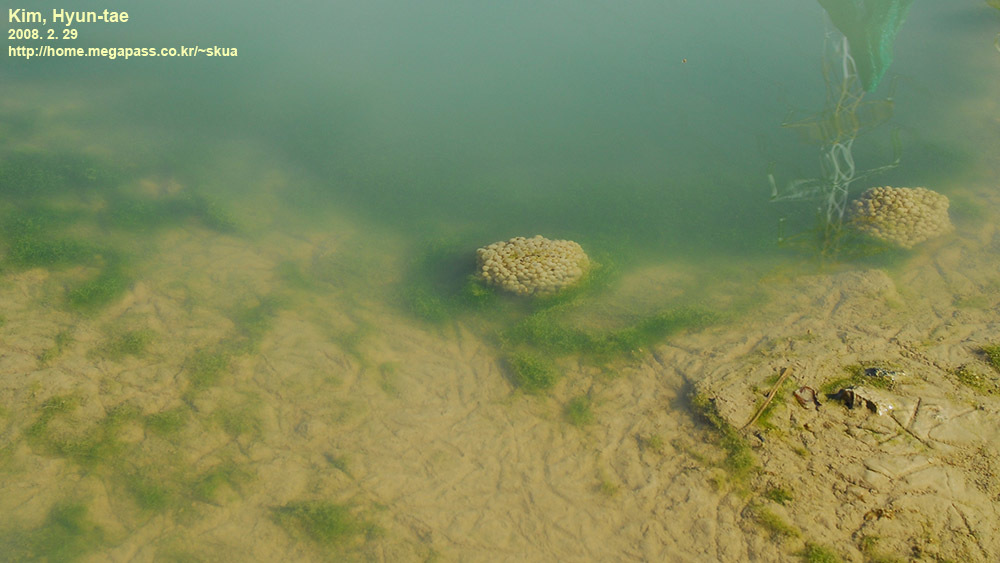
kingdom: Animalia
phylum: Chordata
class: Amphibia
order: Anura
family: Ranidae
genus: Rana
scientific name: Rana coreana
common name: Korean brown frog
